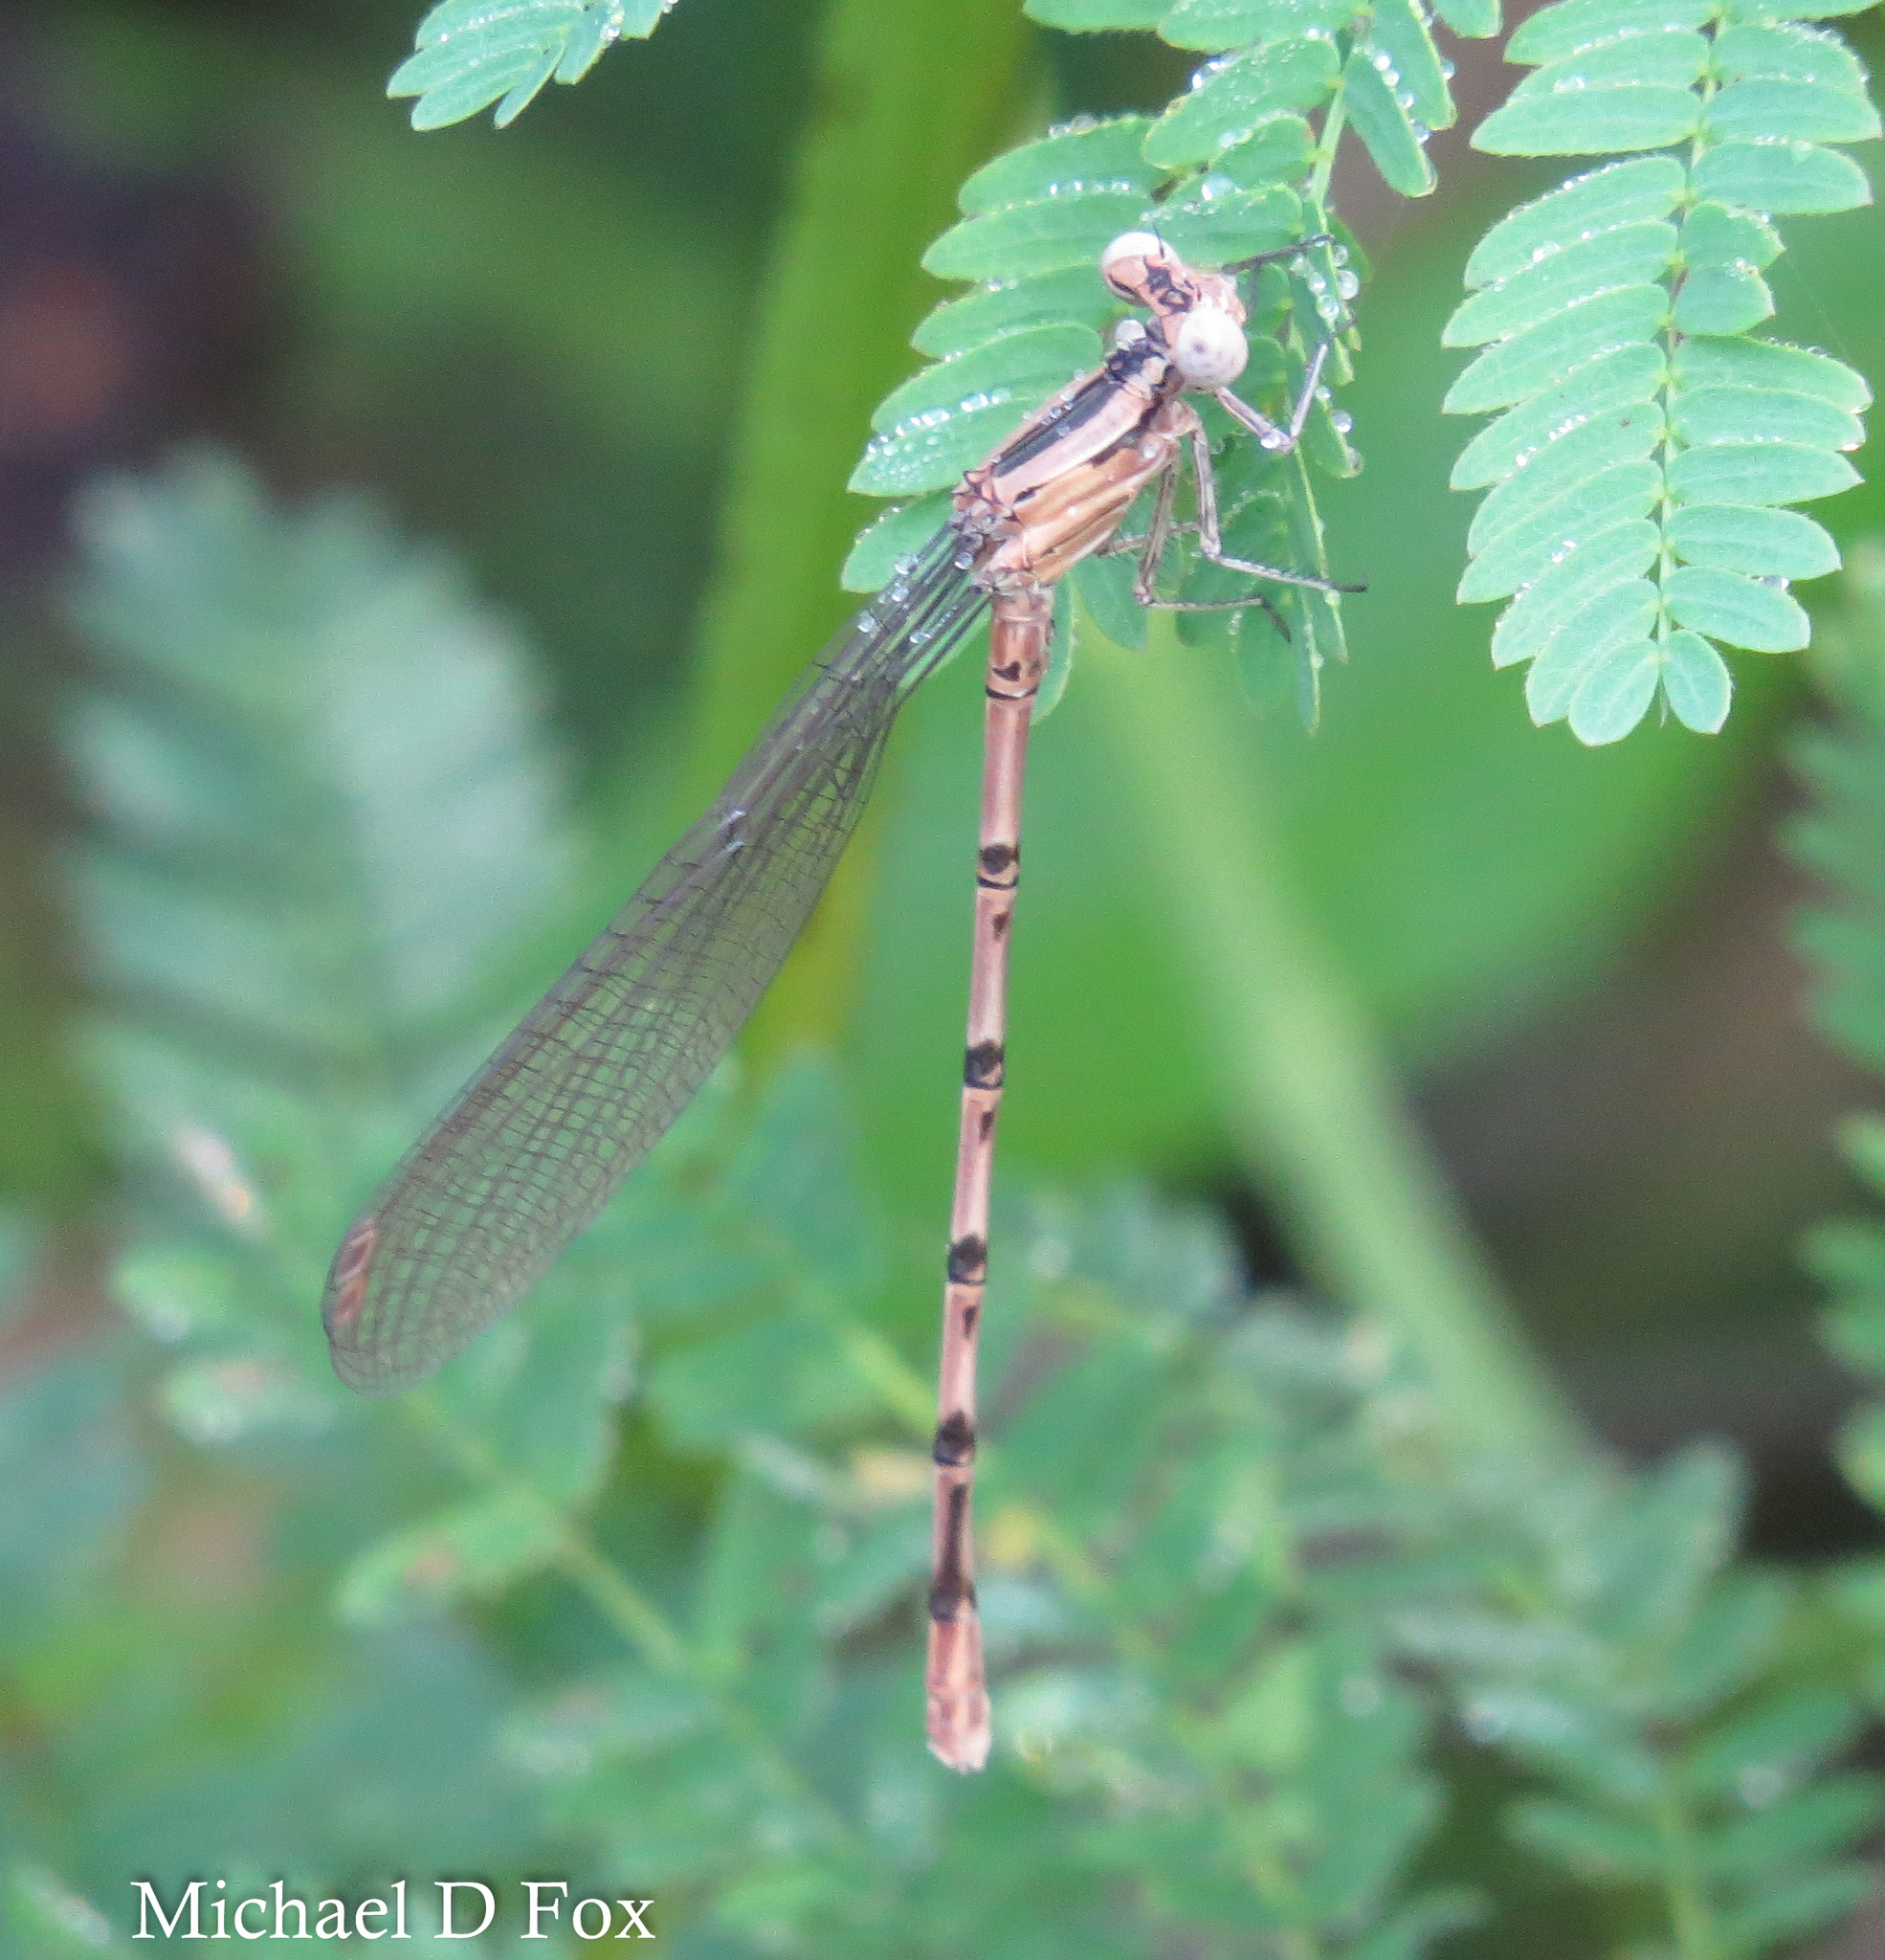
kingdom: Animalia
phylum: Arthropoda
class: Insecta
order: Odonata
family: Coenagrionidae
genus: Argia
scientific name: Argia funebris
